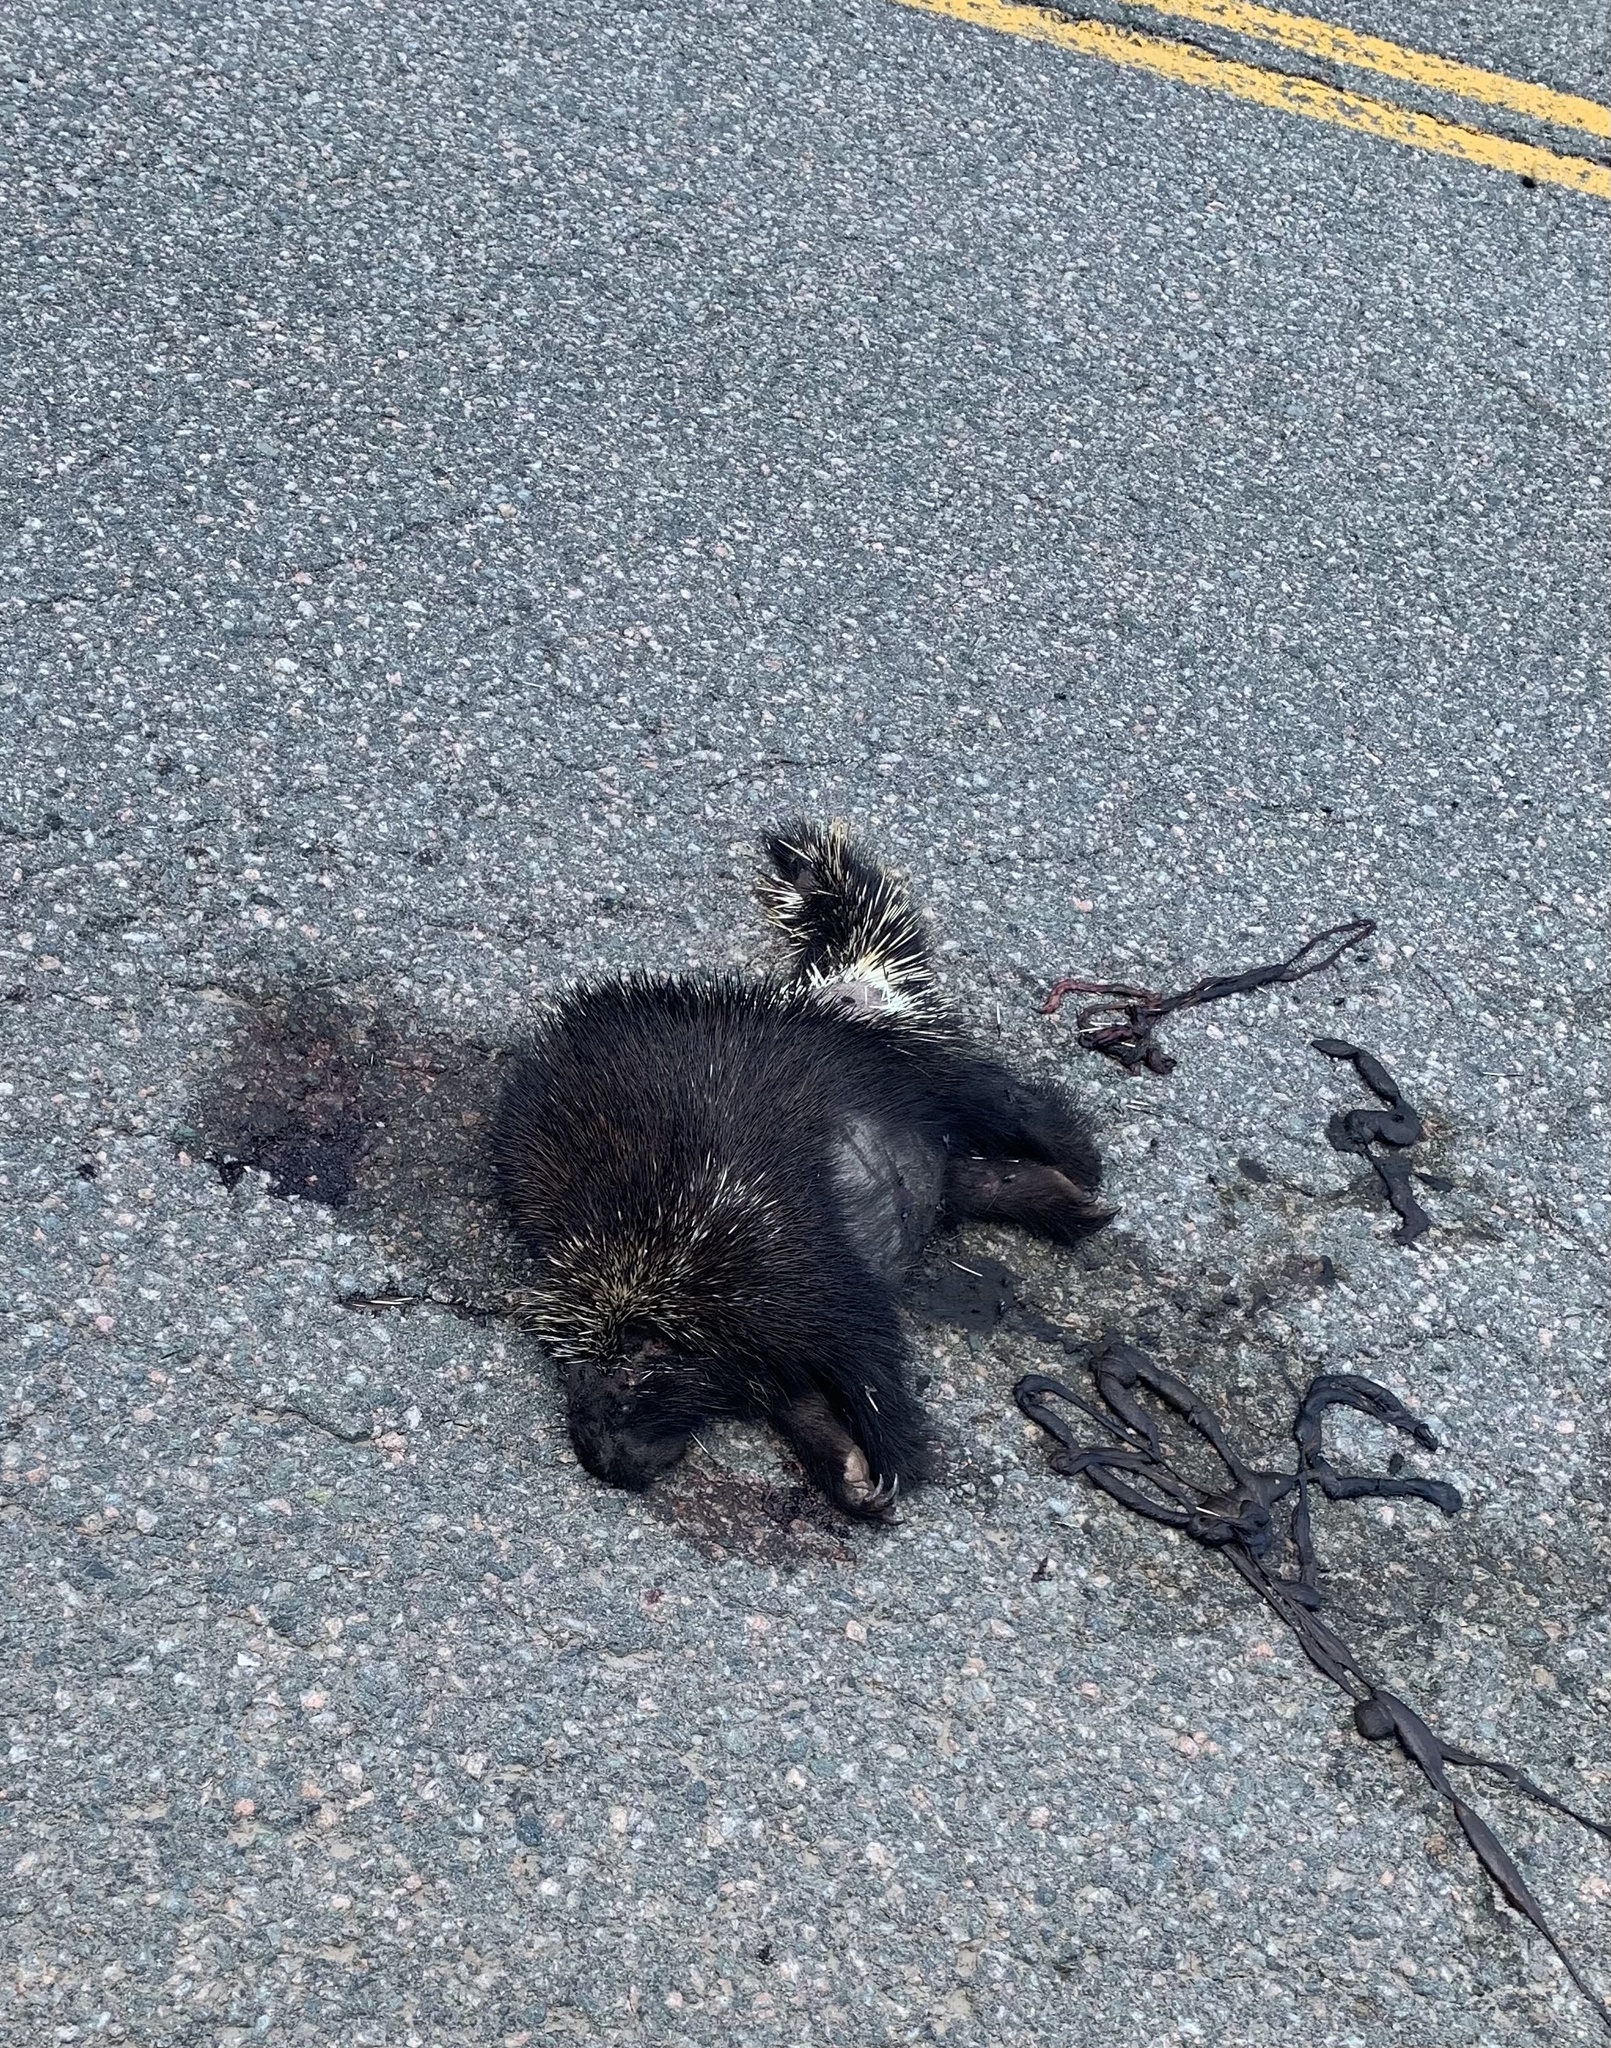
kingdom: Animalia
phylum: Chordata
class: Mammalia
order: Rodentia
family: Erethizontidae
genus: Erethizon
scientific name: Erethizon dorsatus
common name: North american porcupine
